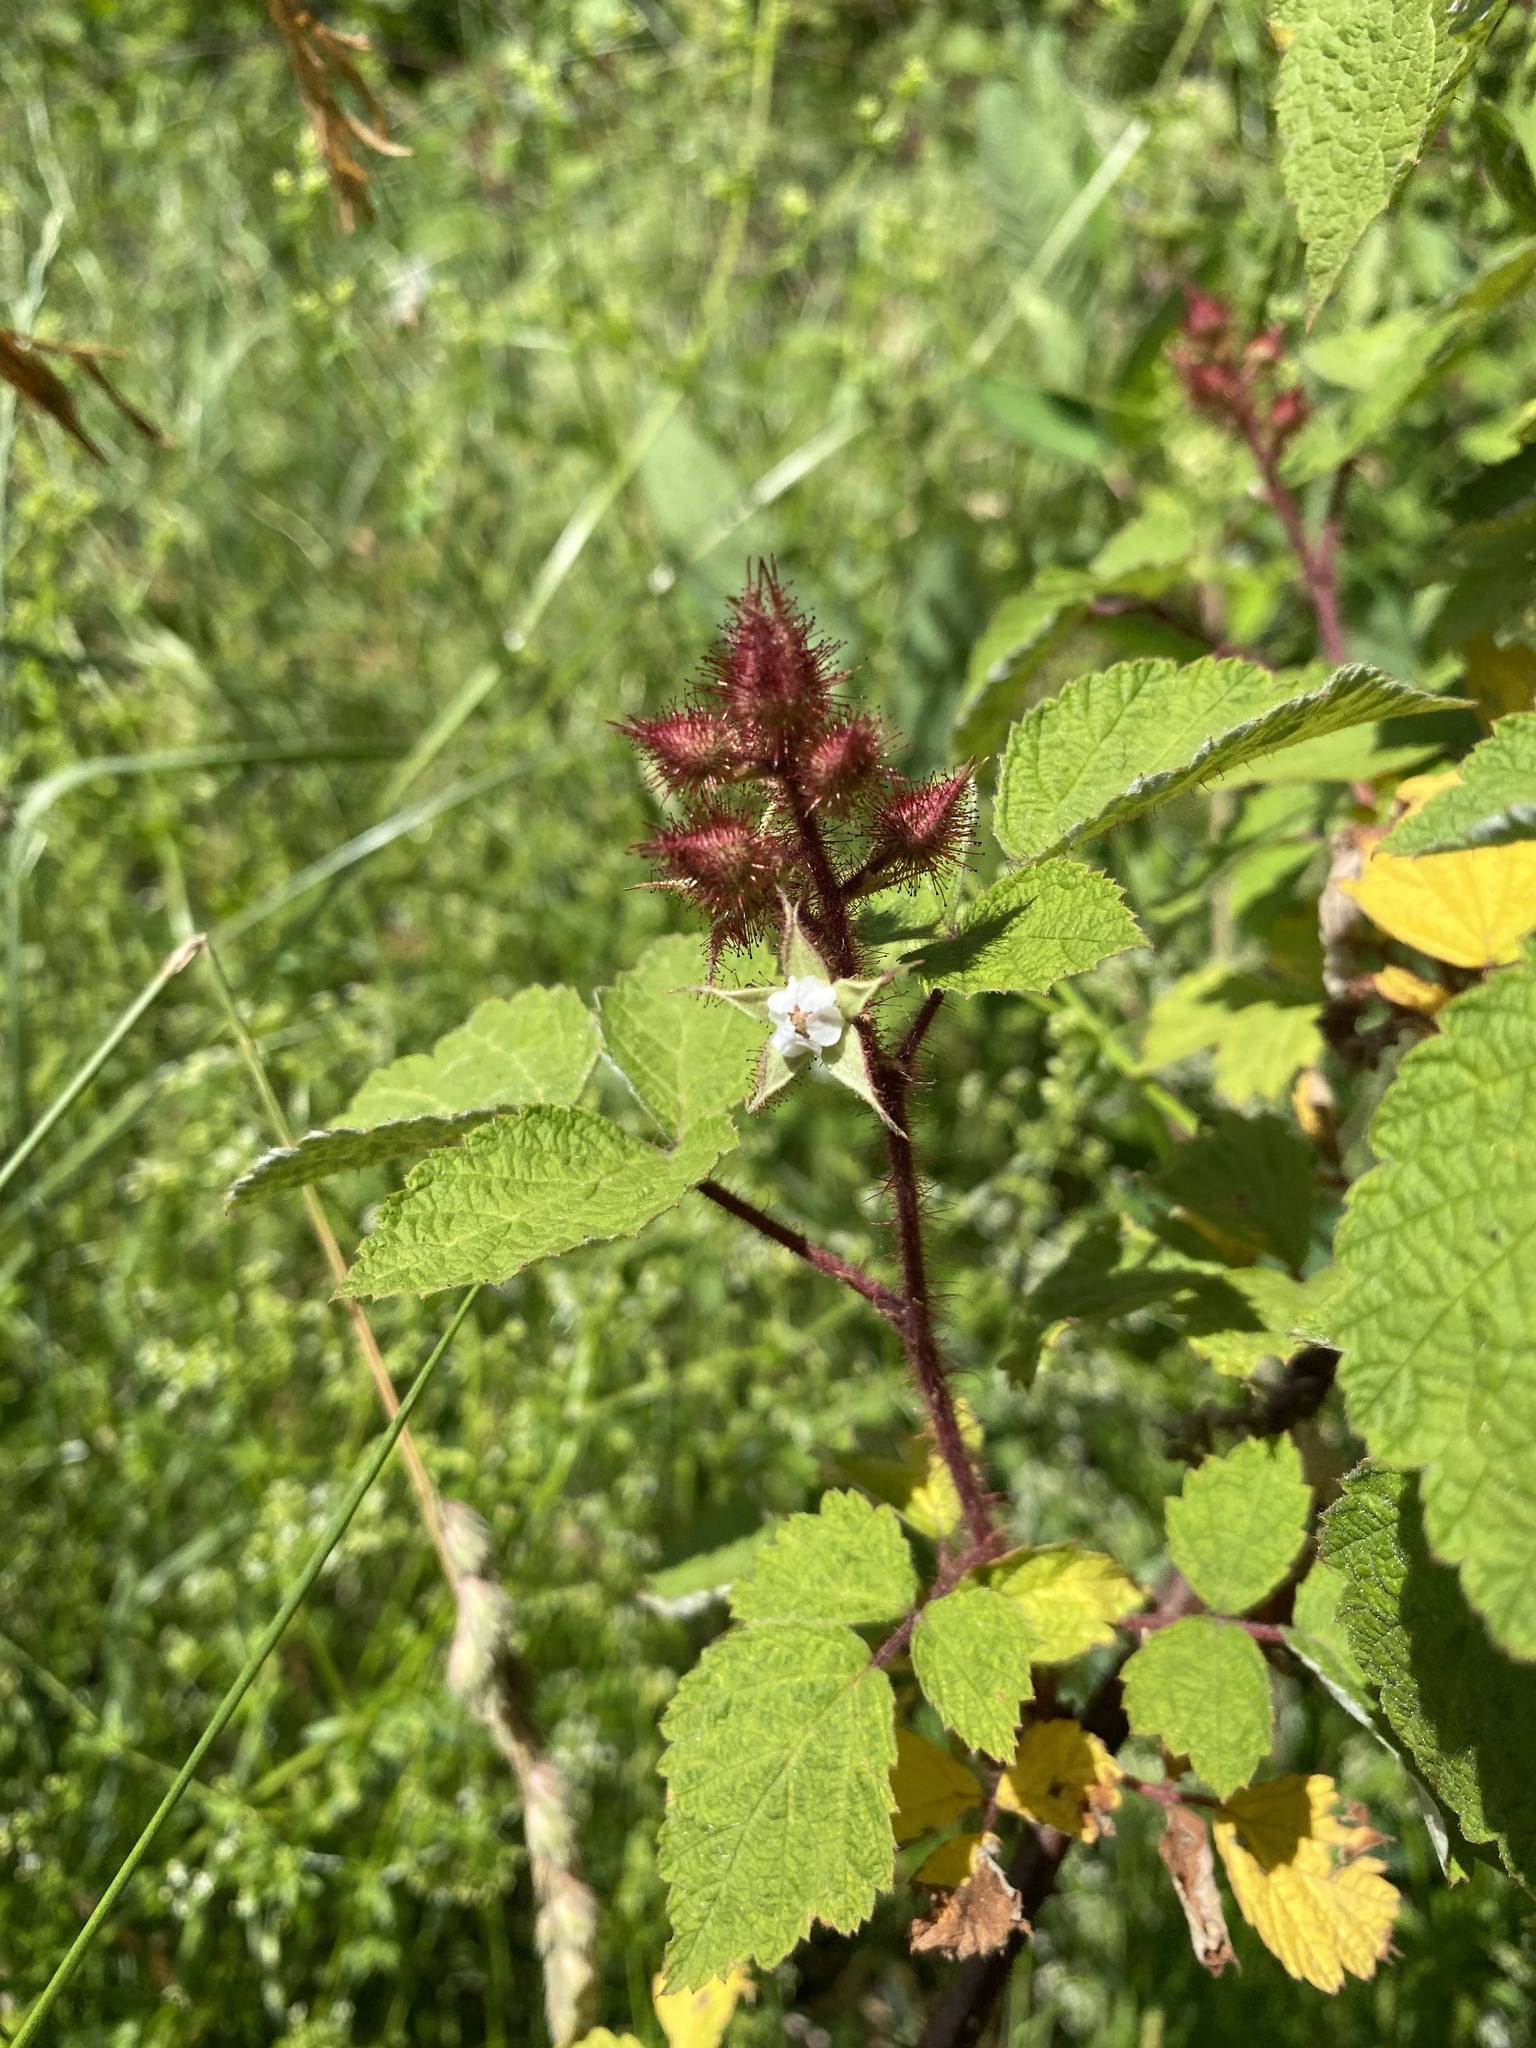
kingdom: Plantae
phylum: Tracheophyta
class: Magnoliopsida
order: Rosales
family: Rosaceae
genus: Rubus
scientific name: Rubus phoenicolasius
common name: Japanese wineberry
